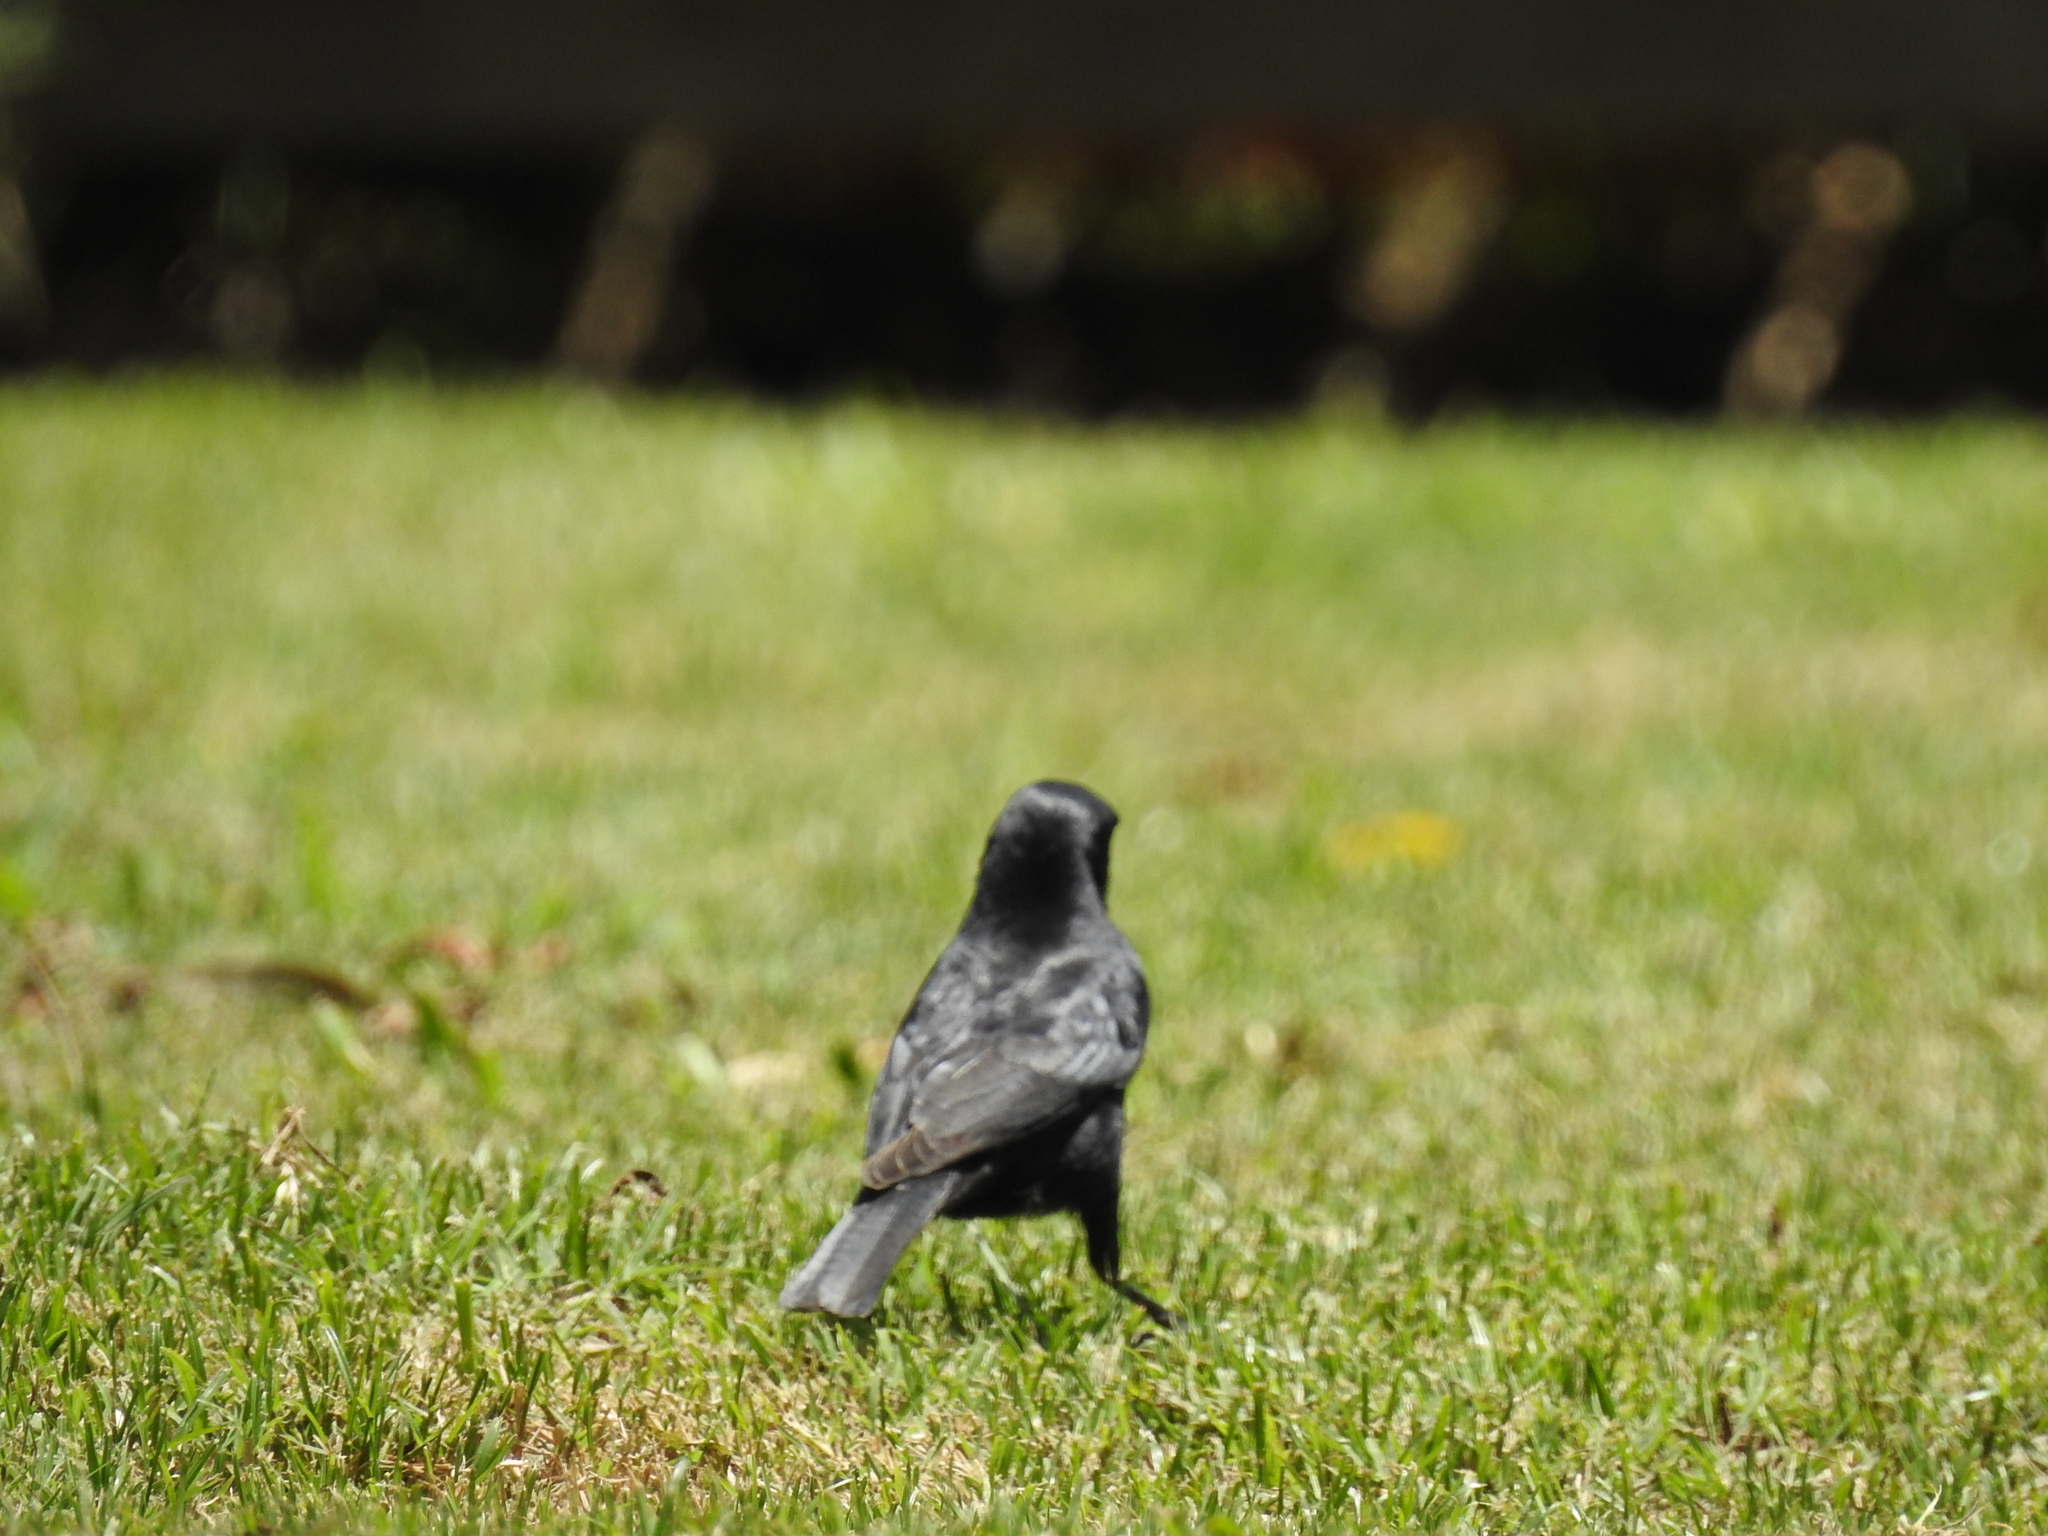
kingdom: Animalia
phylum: Chordata
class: Aves
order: Passeriformes
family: Icteridae
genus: Molothrus
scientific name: Molothrus rufoaxillaris
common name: Screaming cowbird
